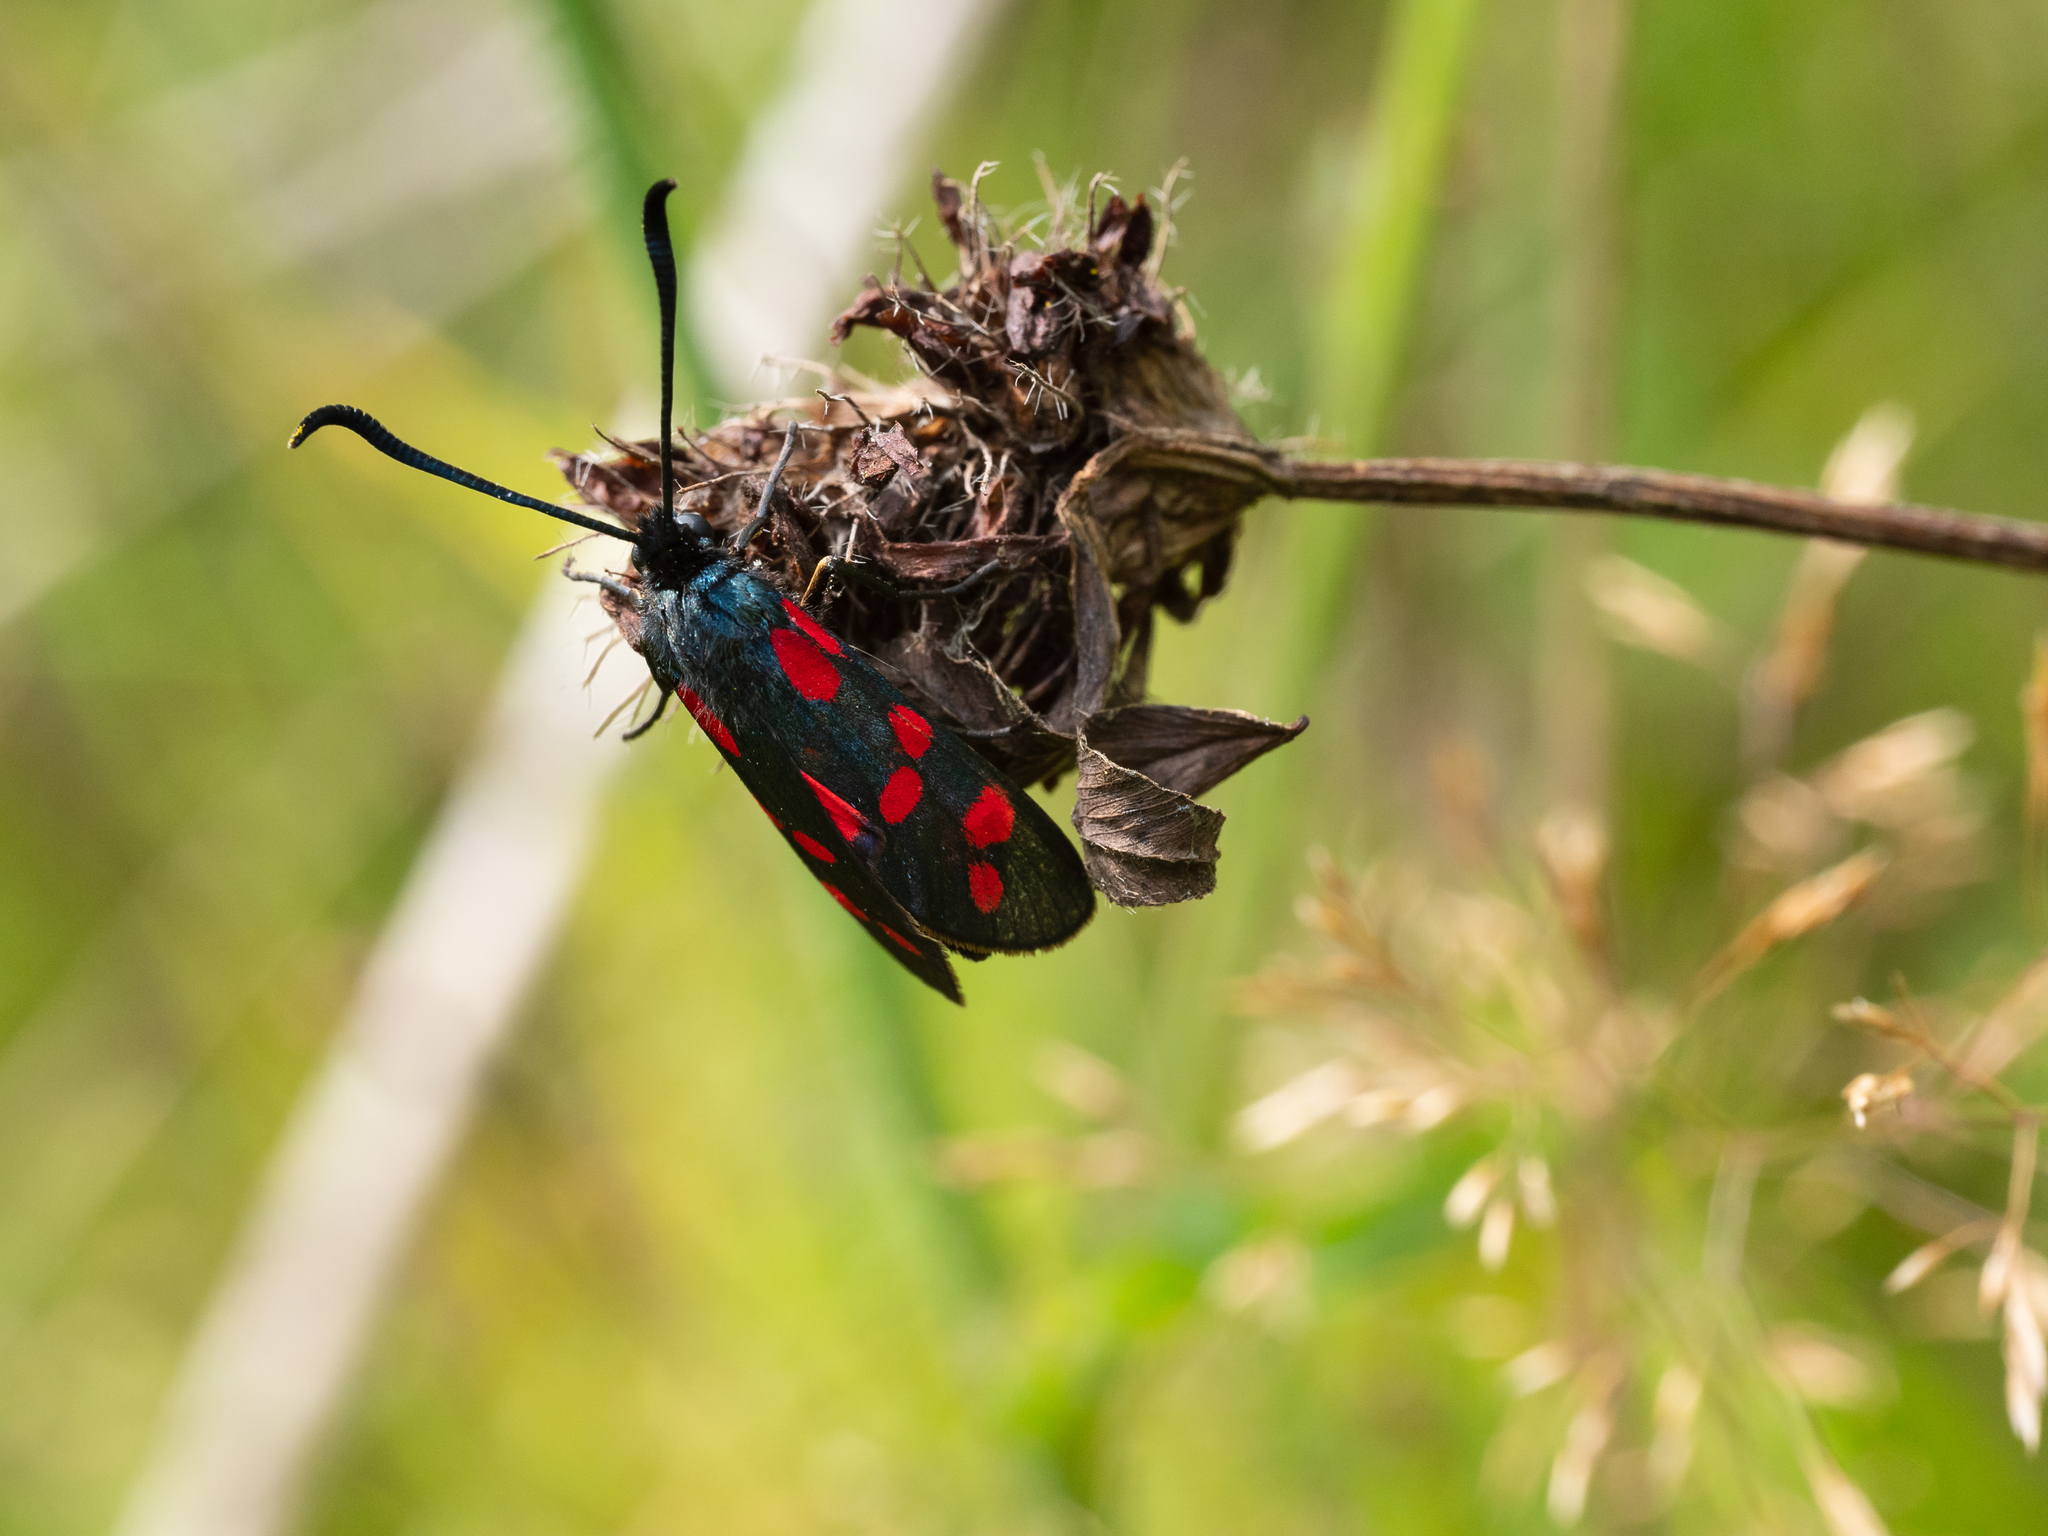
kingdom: Animalia
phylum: Arthropoda
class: Insecta
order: Lepidoptera
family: Zygaenidae
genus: Zygaena
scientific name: Zygaena filipendulae
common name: Six-spot burnet
